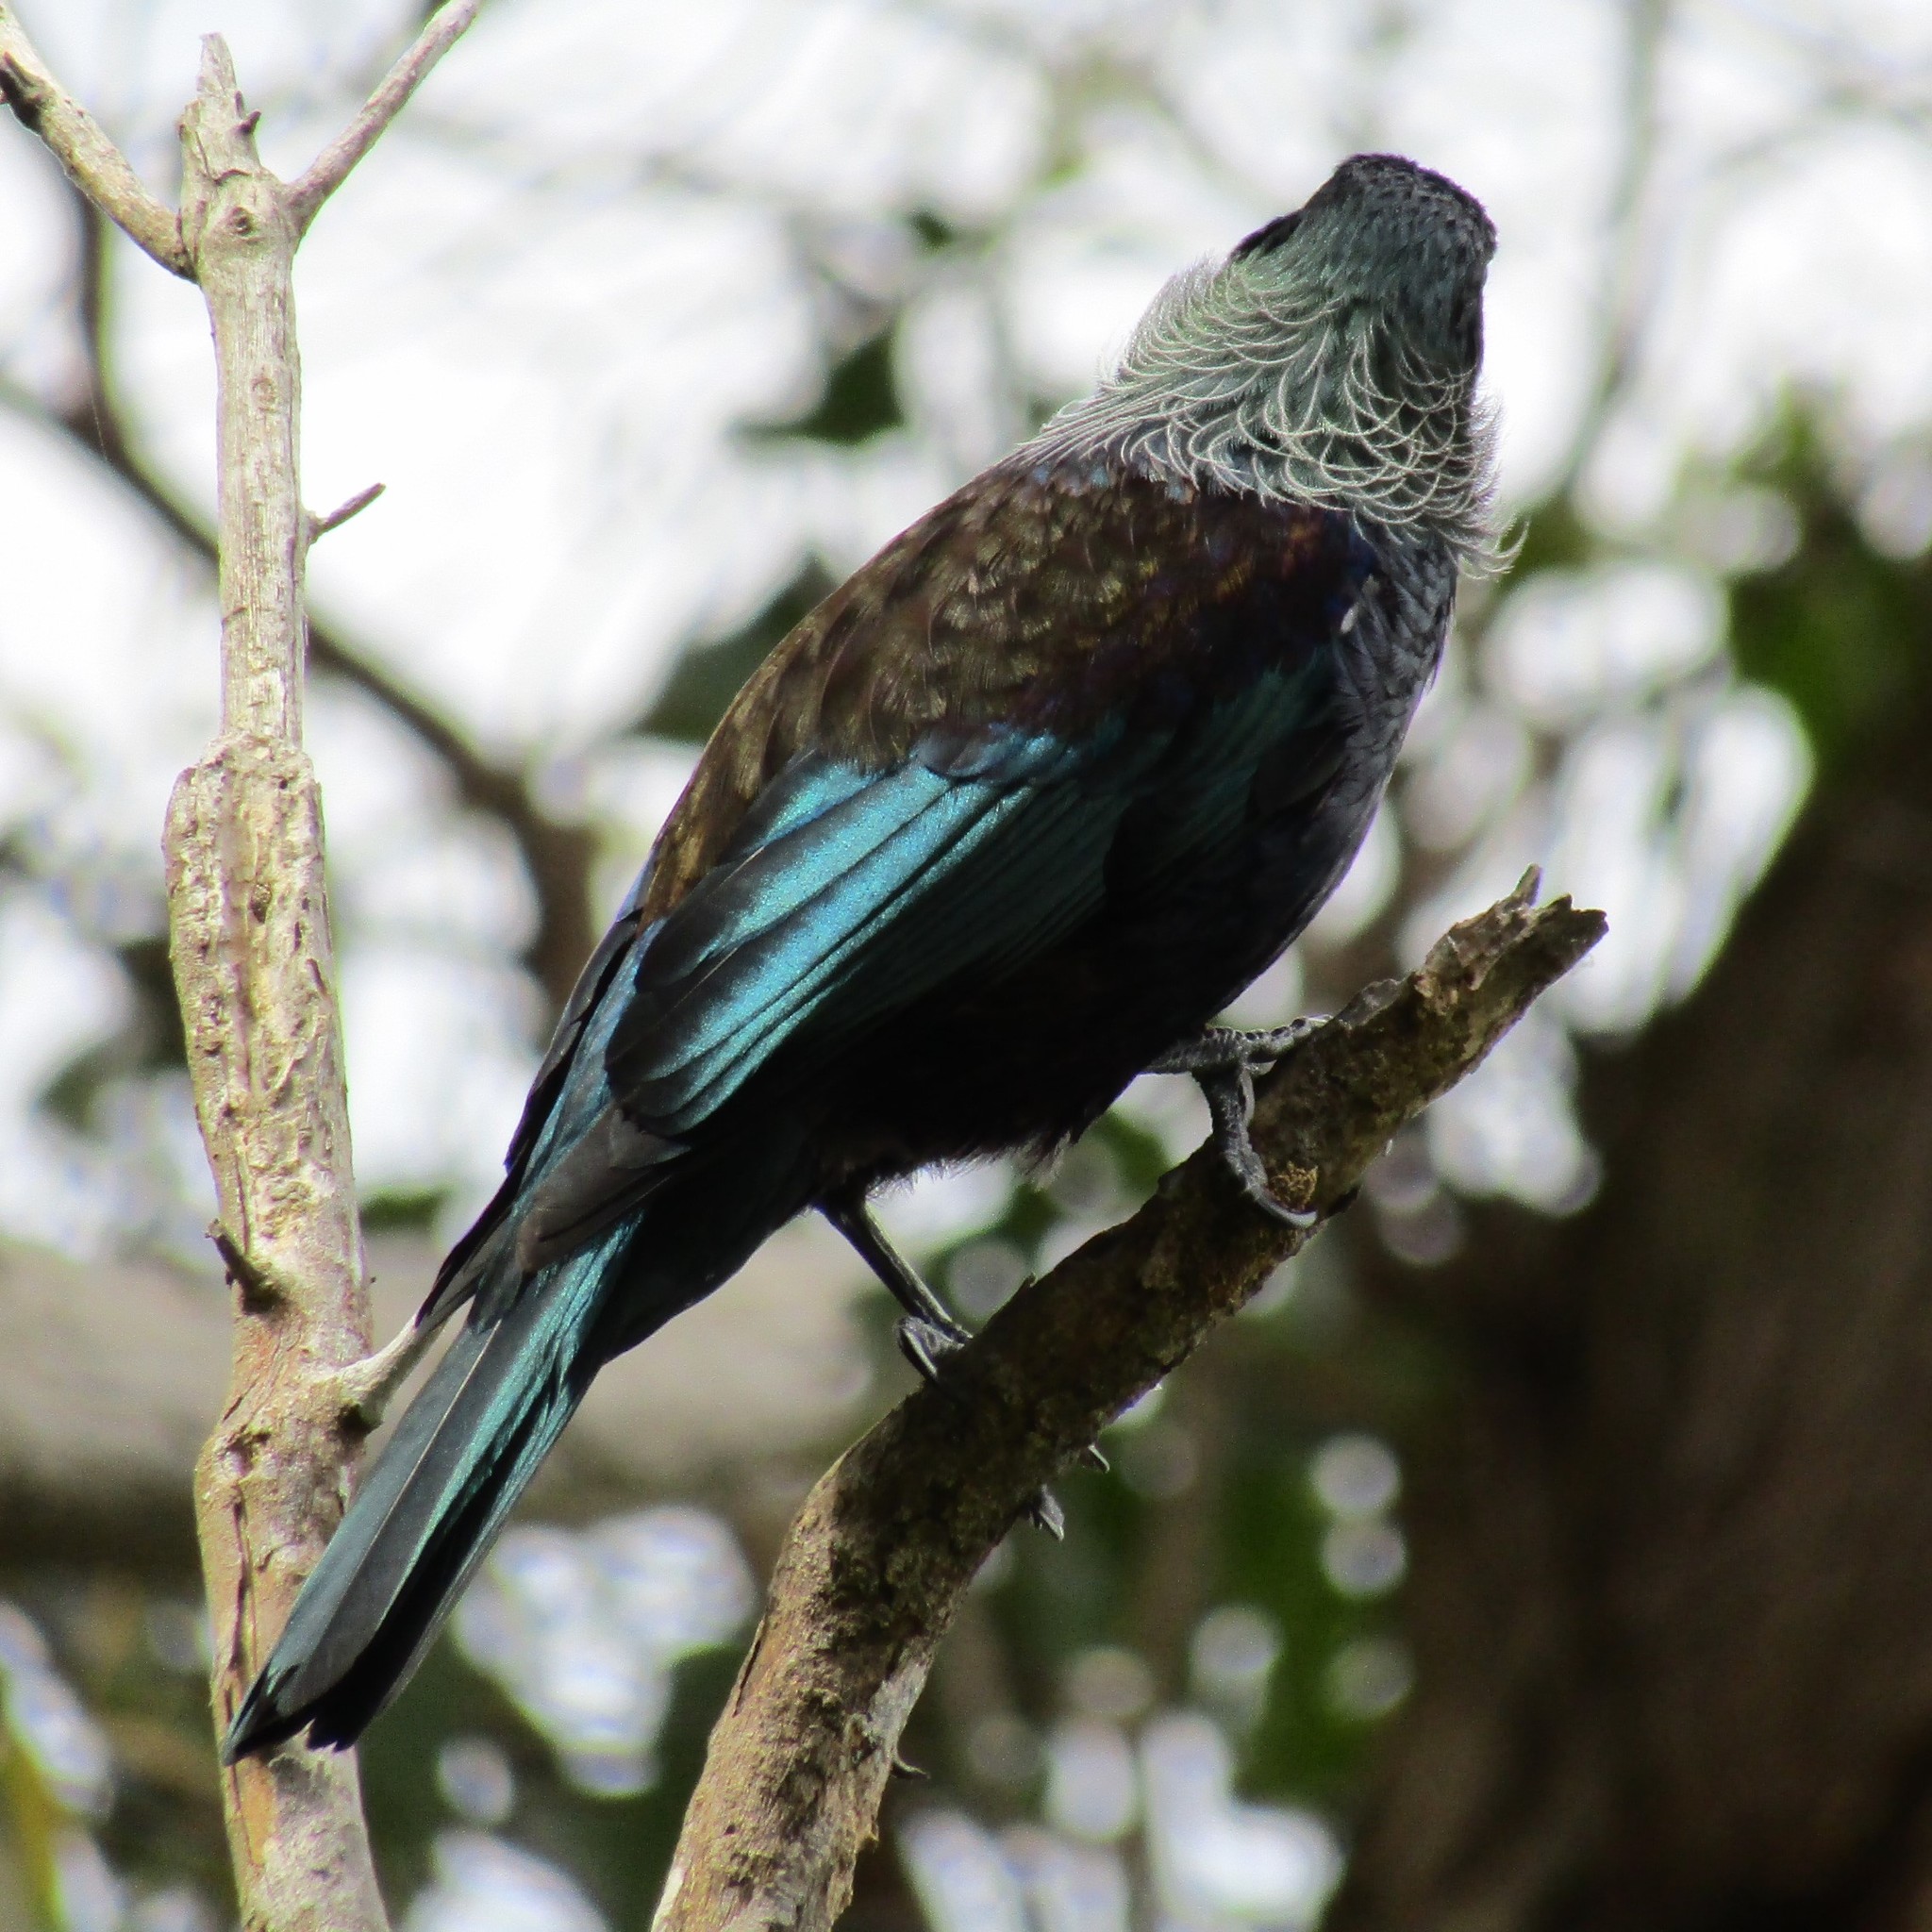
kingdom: Animalia
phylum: Chordata
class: Aves
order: Passeriformes
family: Meliphagidae
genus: Prosthemadera
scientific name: Prosthemadera novaeseelandiae
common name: Tui
